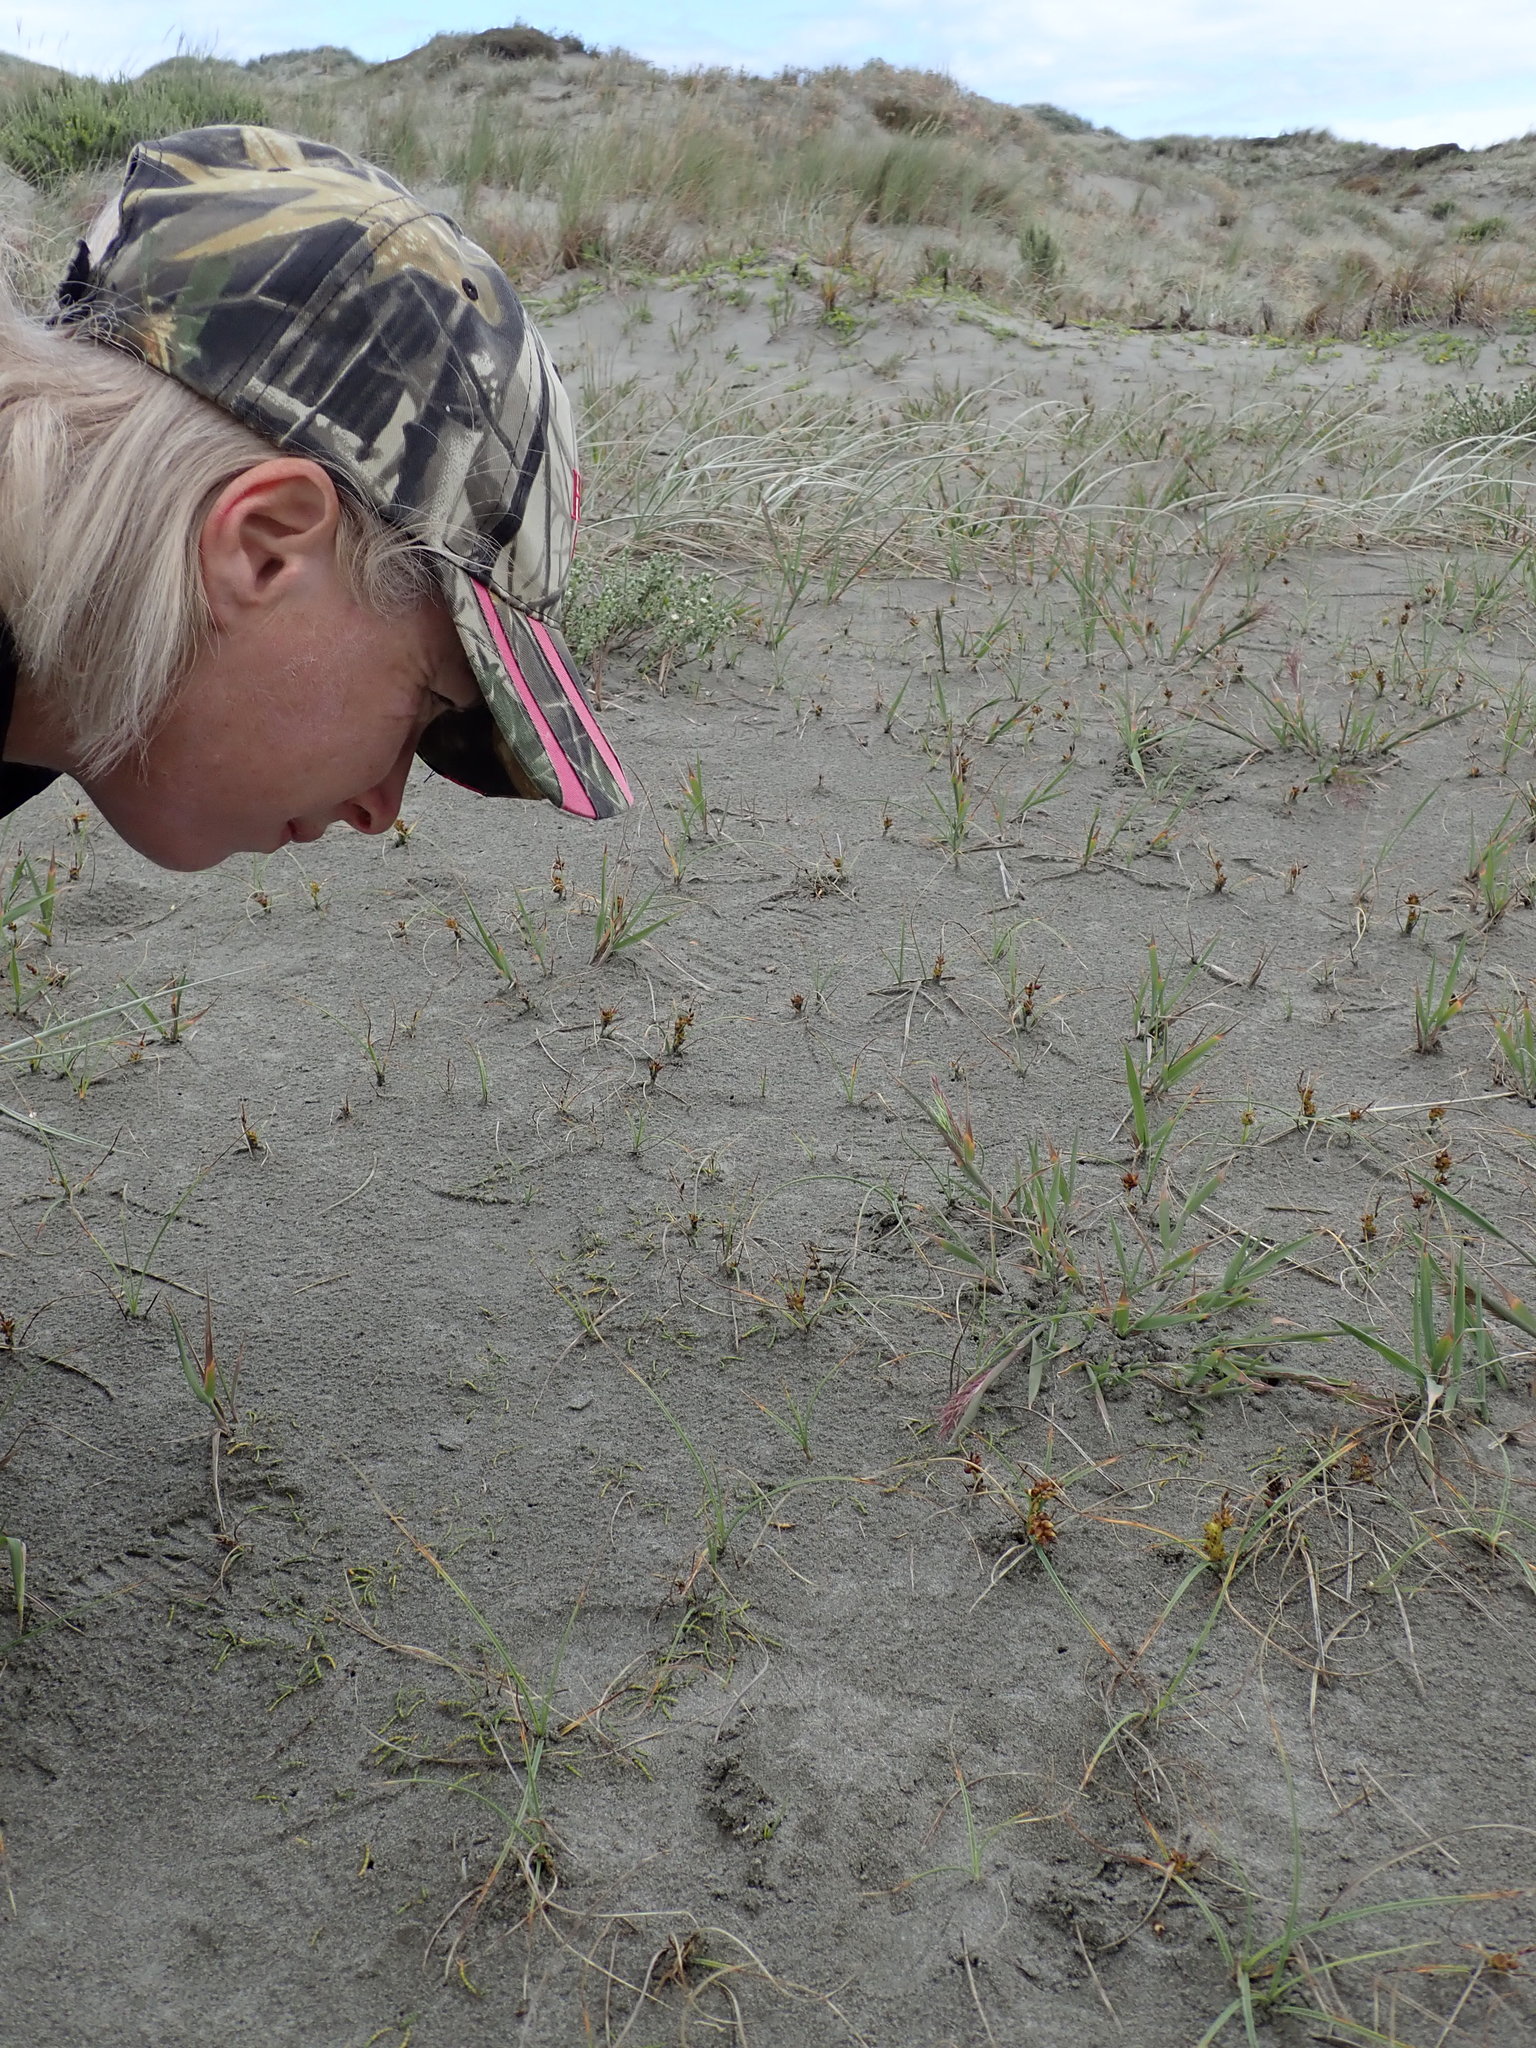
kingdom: Plantae
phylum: Tracheophyta
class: Magnoliopsida
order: Apiales
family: Apiaceae
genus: Lilaeopsis
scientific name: Lilaeopsis novae-zelandiae
